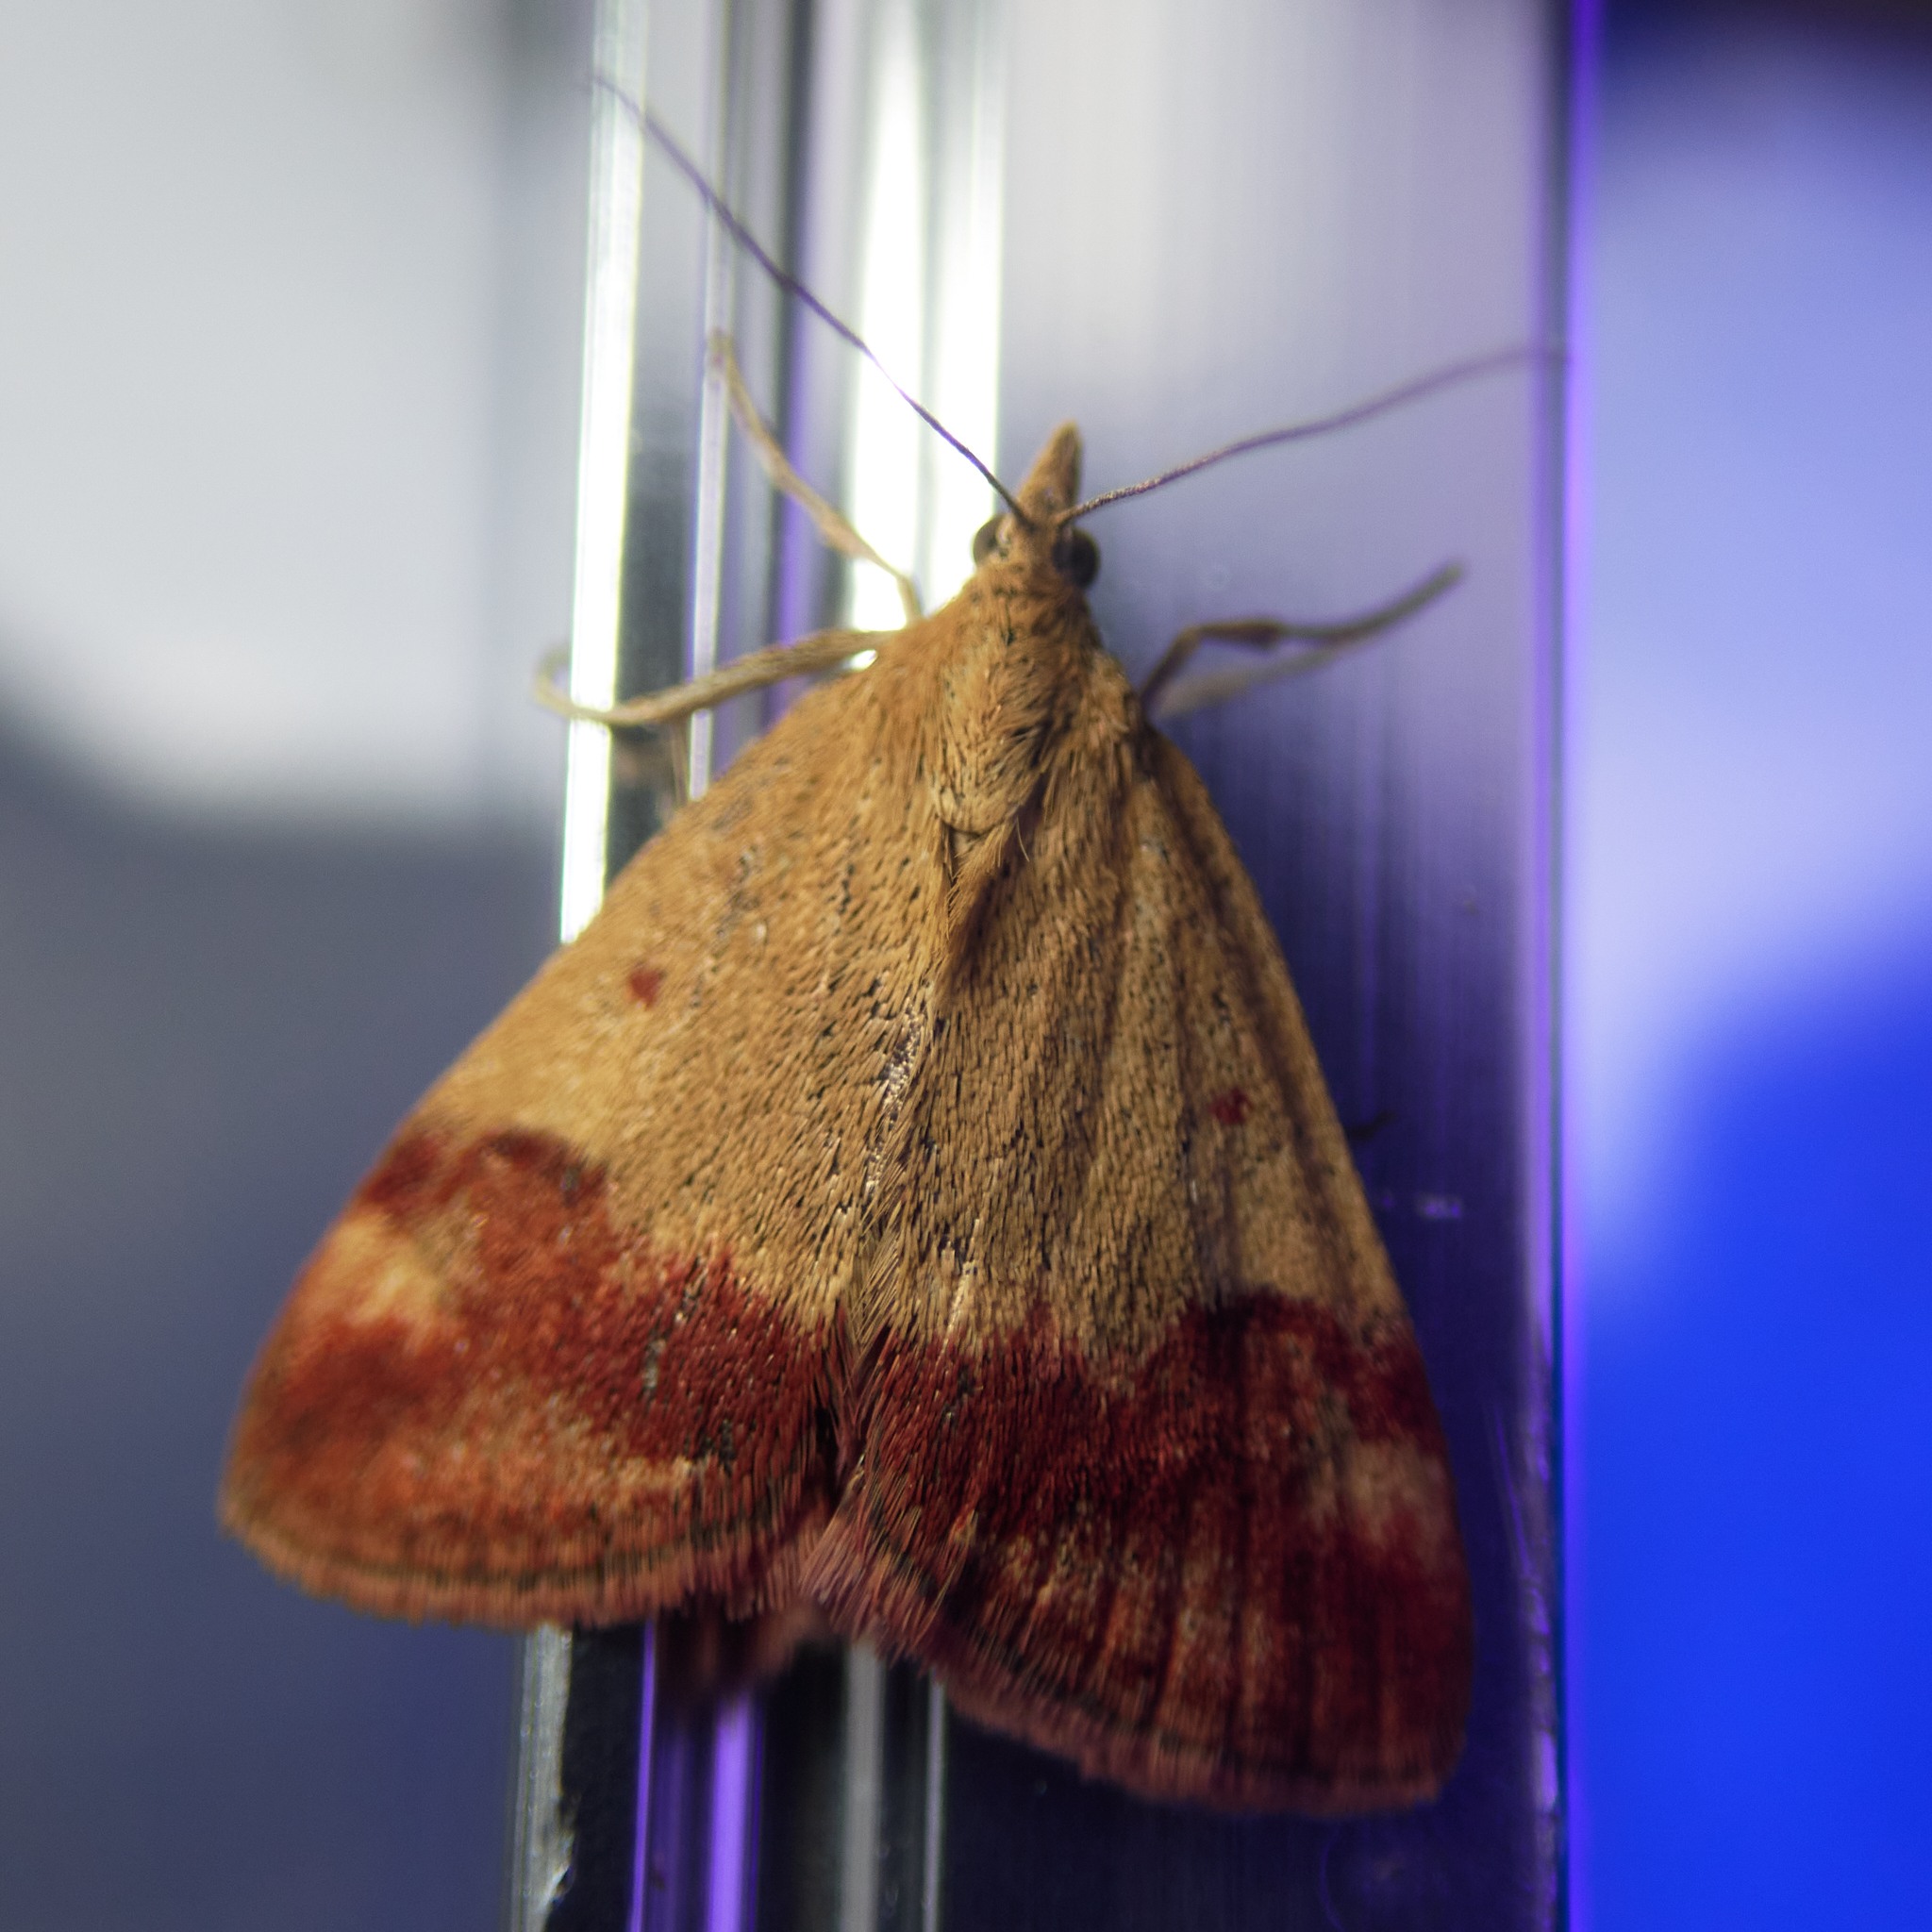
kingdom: Animalia
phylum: Arthropoda
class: Insecta
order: Lepidoptera
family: Crambidae
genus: Pyrausta
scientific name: Pyrausta semirubralis
